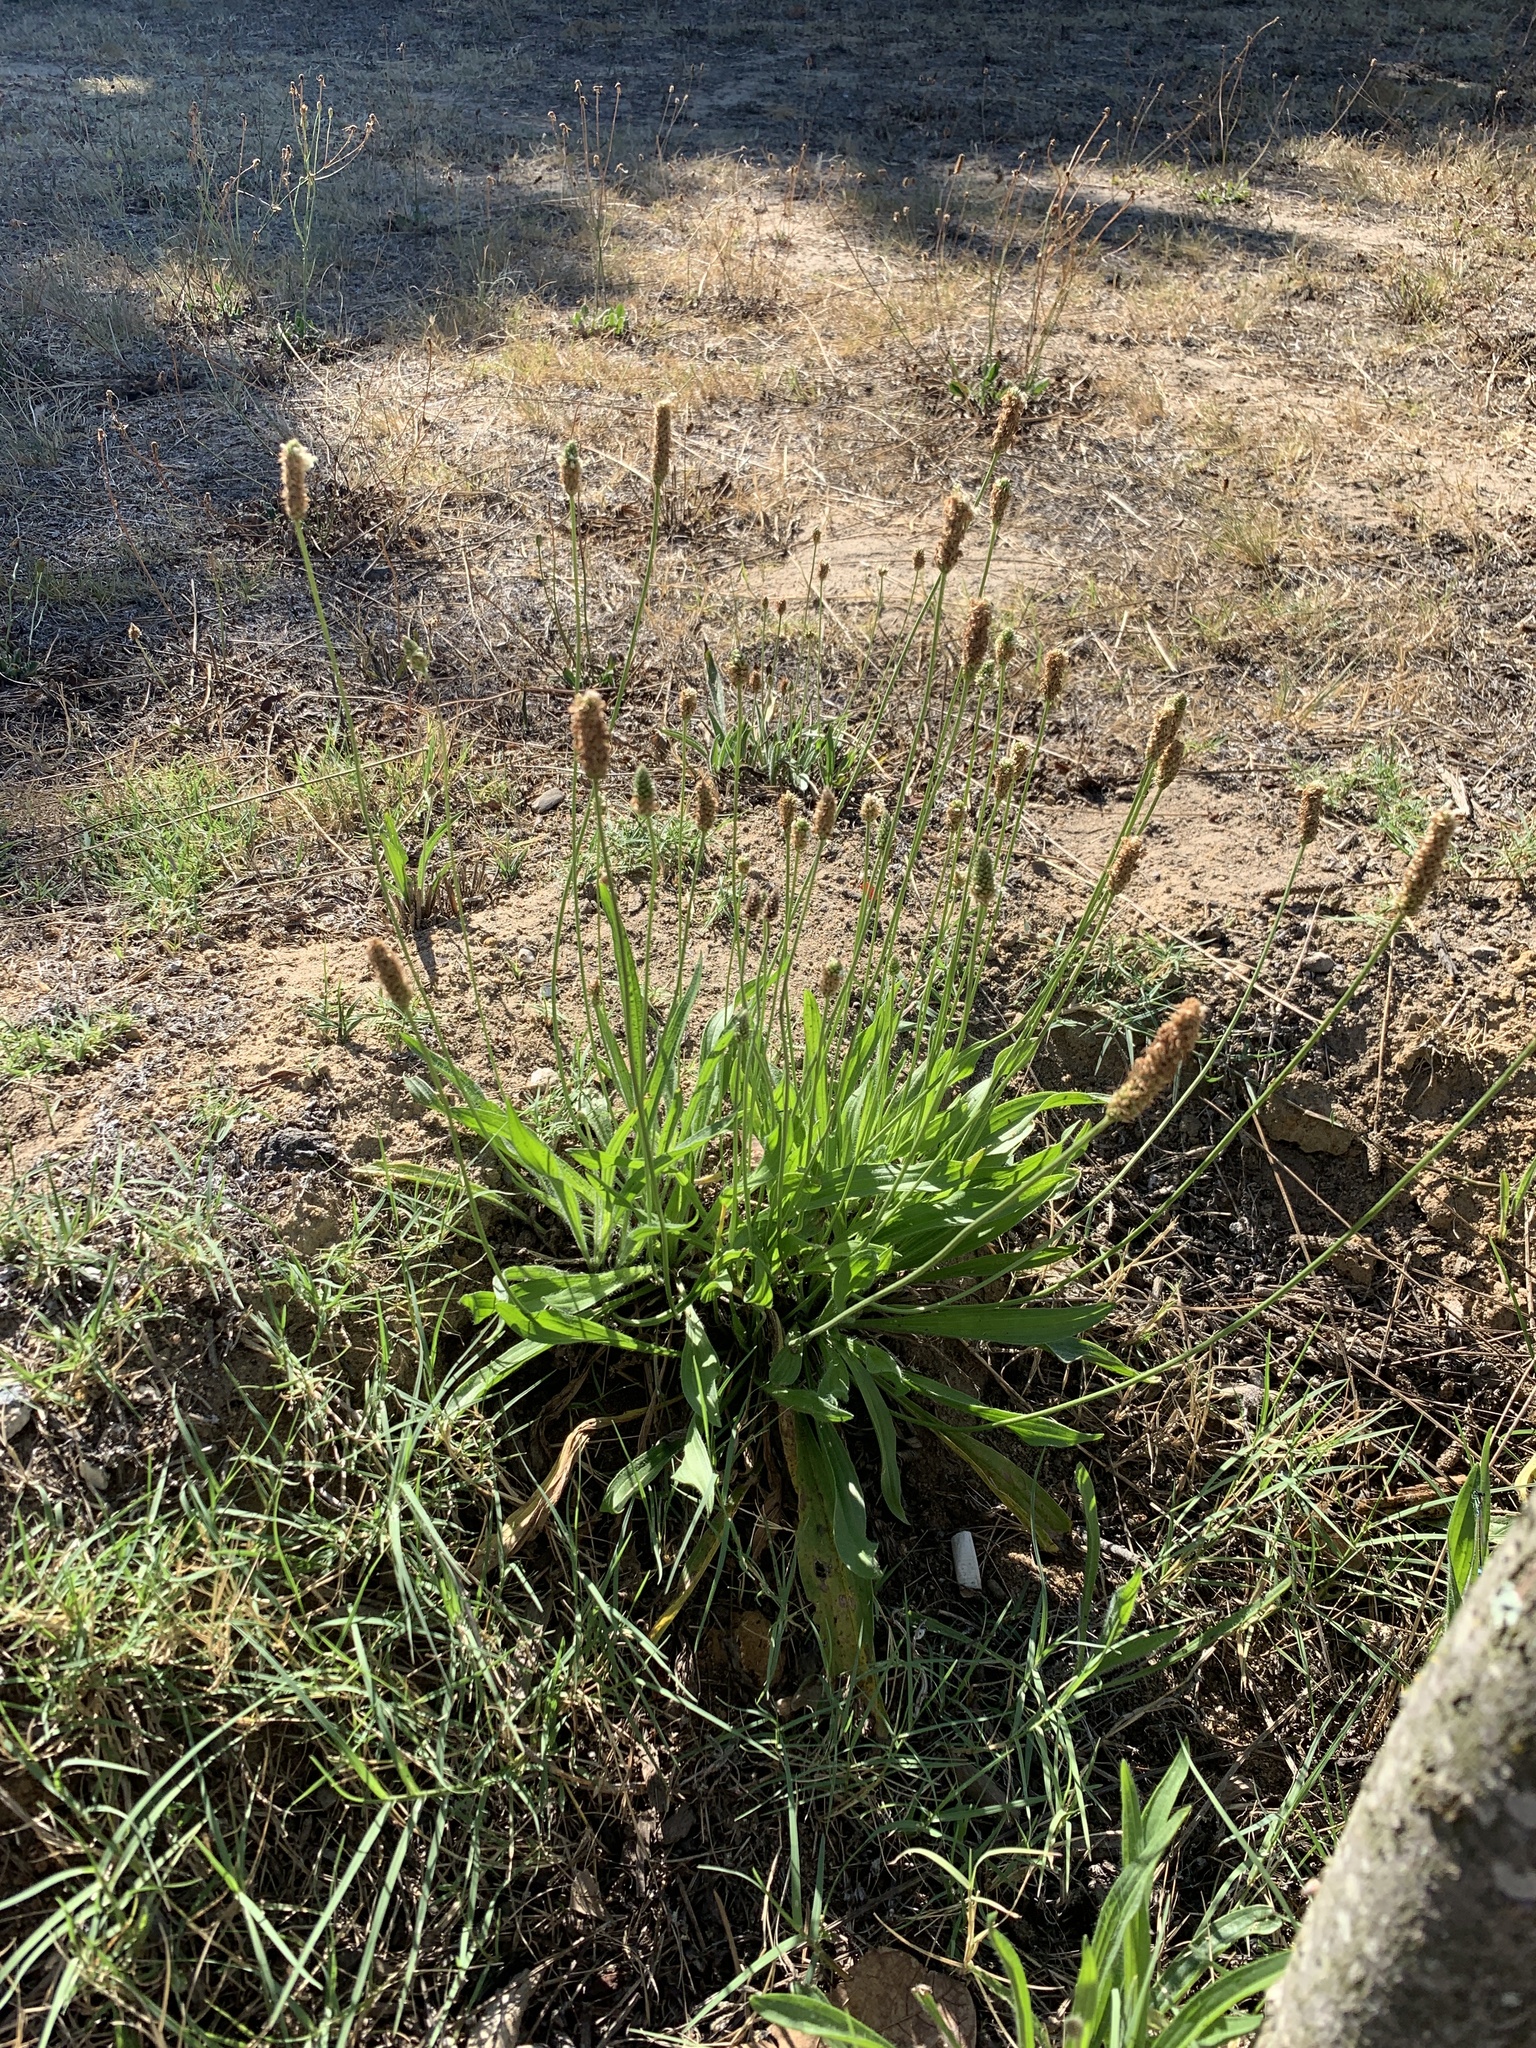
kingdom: Plantae
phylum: Tracheophyta
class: Magnoliopsida
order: Lamiales
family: Plantaginaceae
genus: Plantago
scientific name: Plantago lanceolata
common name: Ribwort plantain
